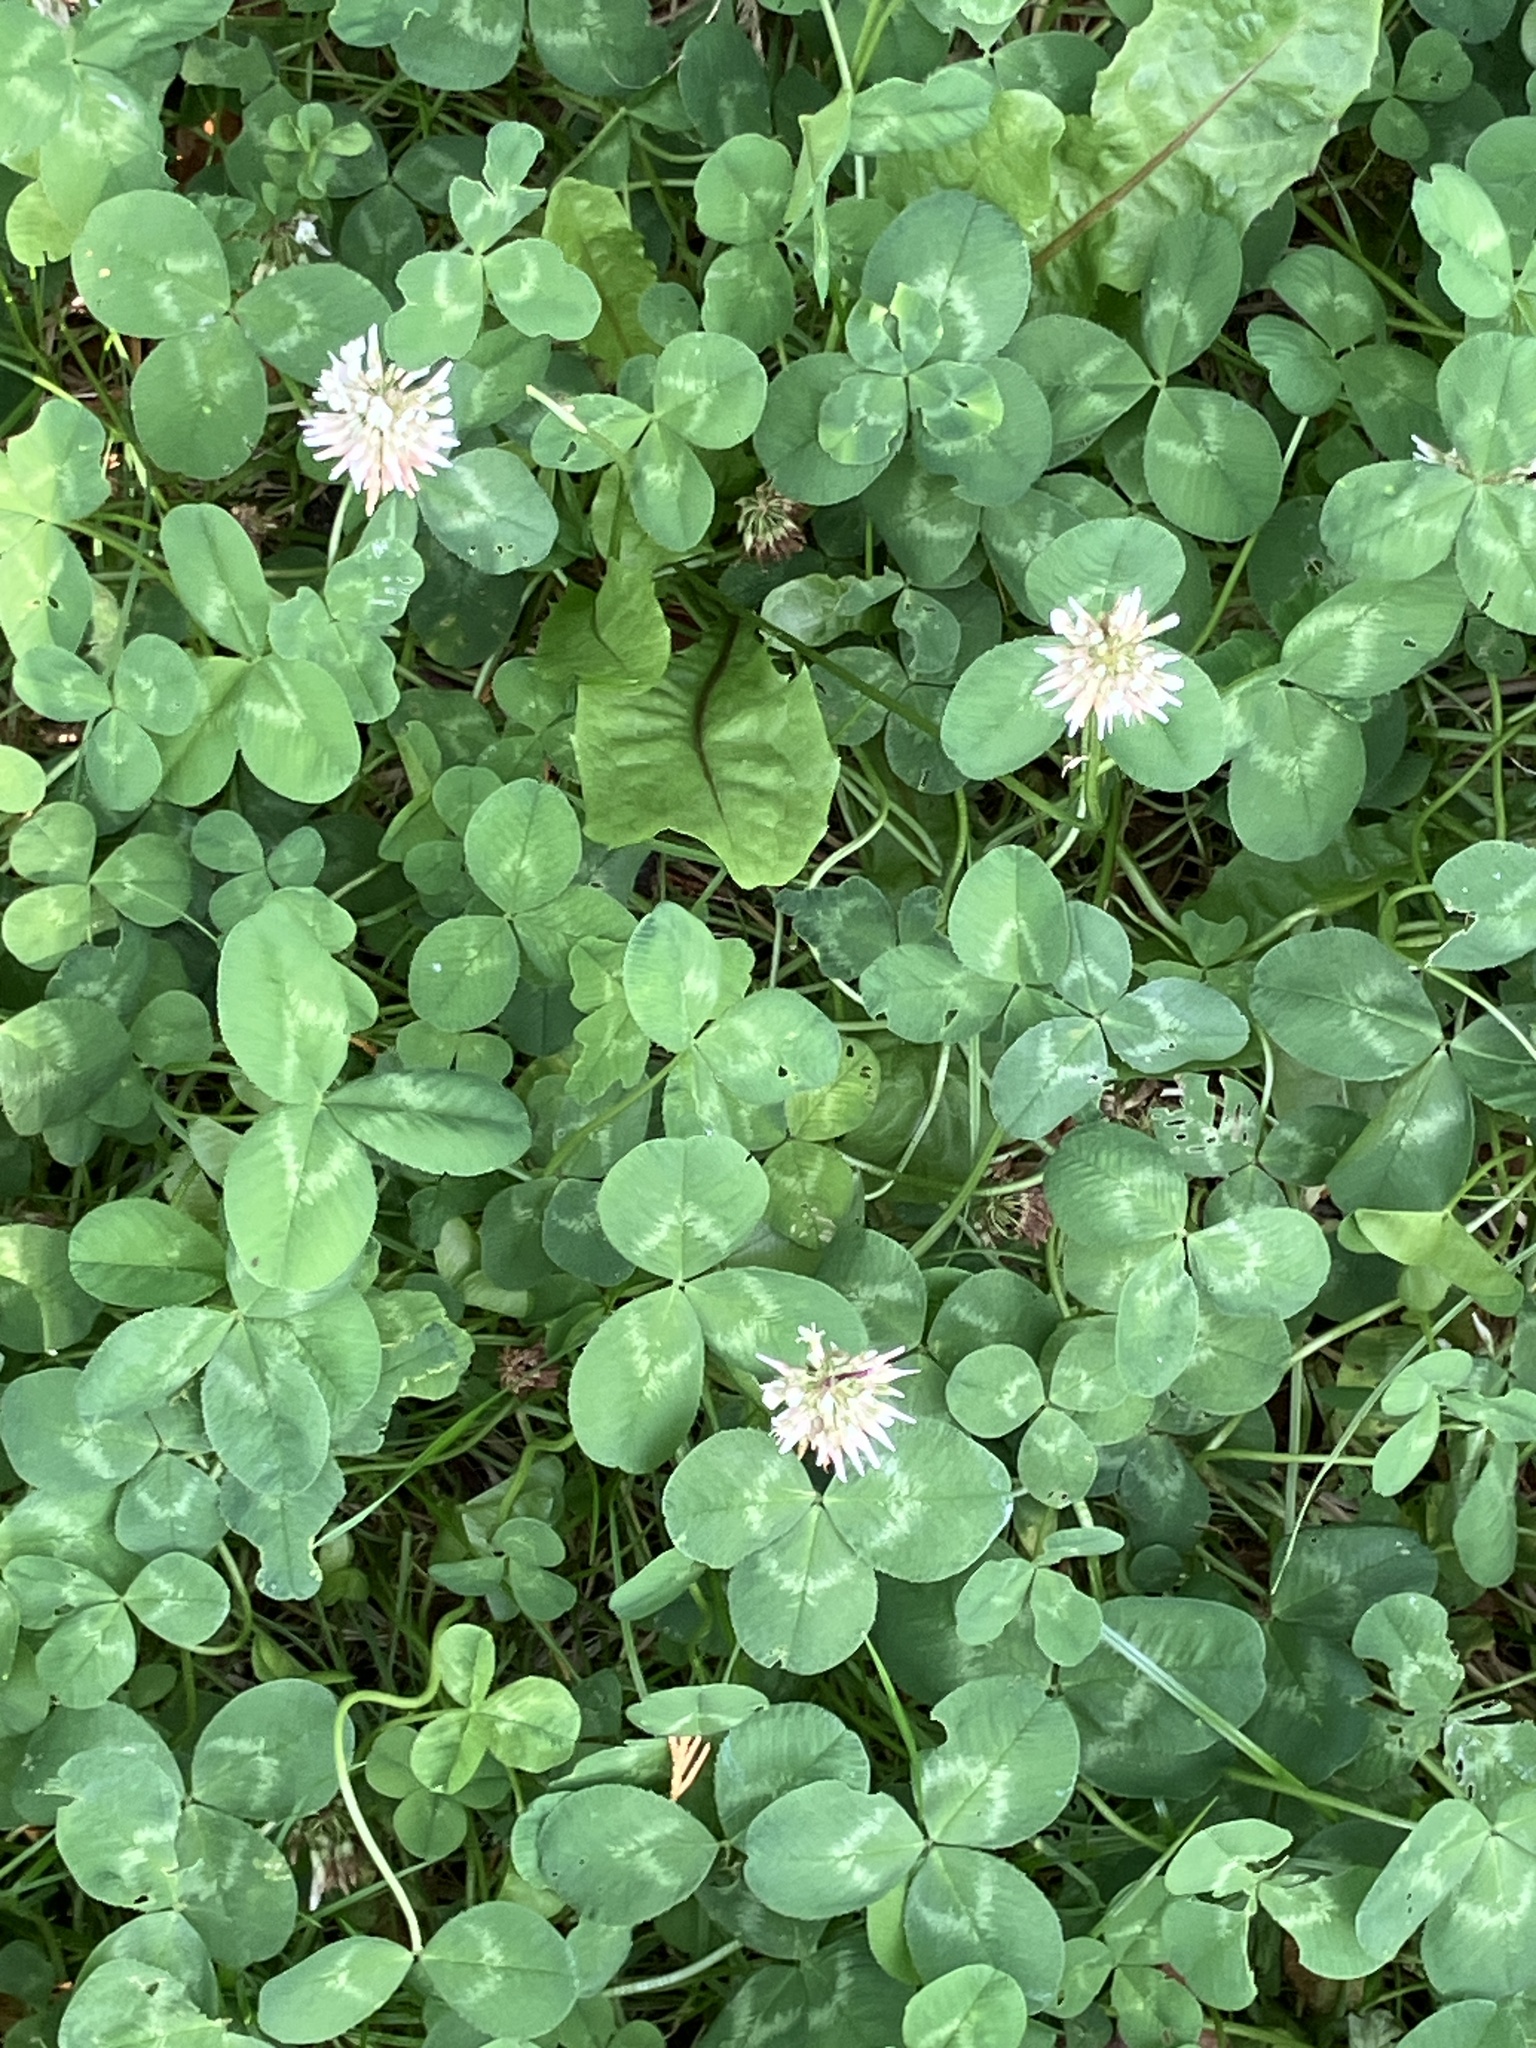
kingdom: Plantae
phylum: Tracheophyta
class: Magnoliopsida
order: Fabales
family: Fabaceae
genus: Trifolium
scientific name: Trifolium repens
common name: White clover
